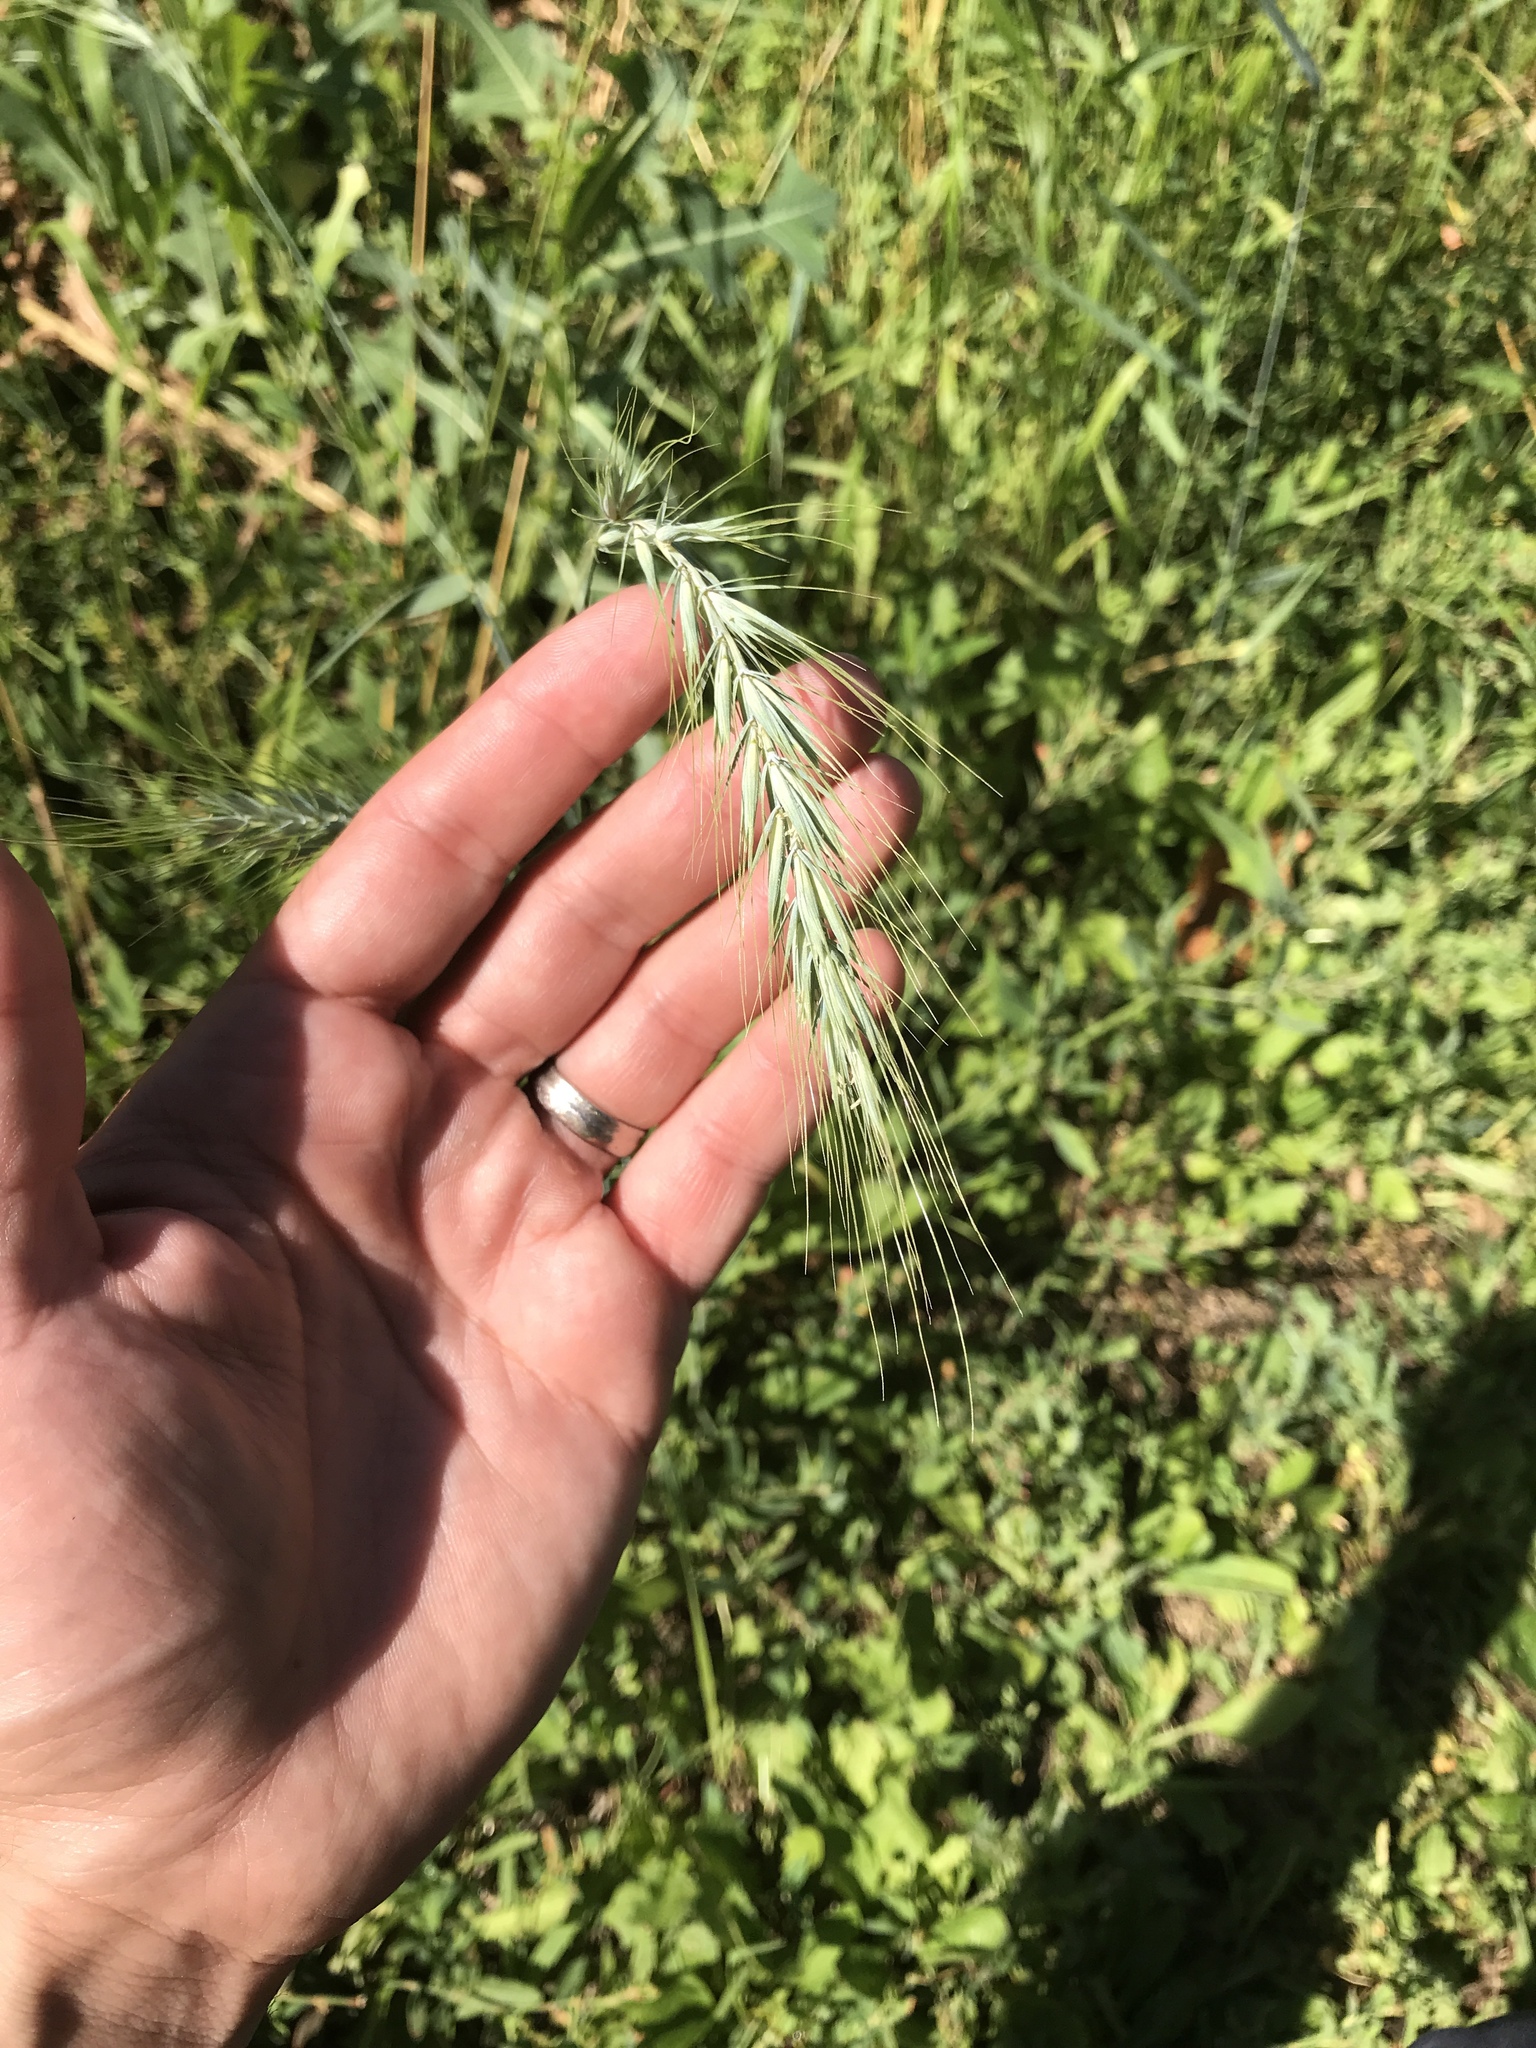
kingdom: Plantae
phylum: Tracheophyta
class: Liliopsida
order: Poales
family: Poaceae
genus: Elymus
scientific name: Elymus canadensis
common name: Canada wild rye
